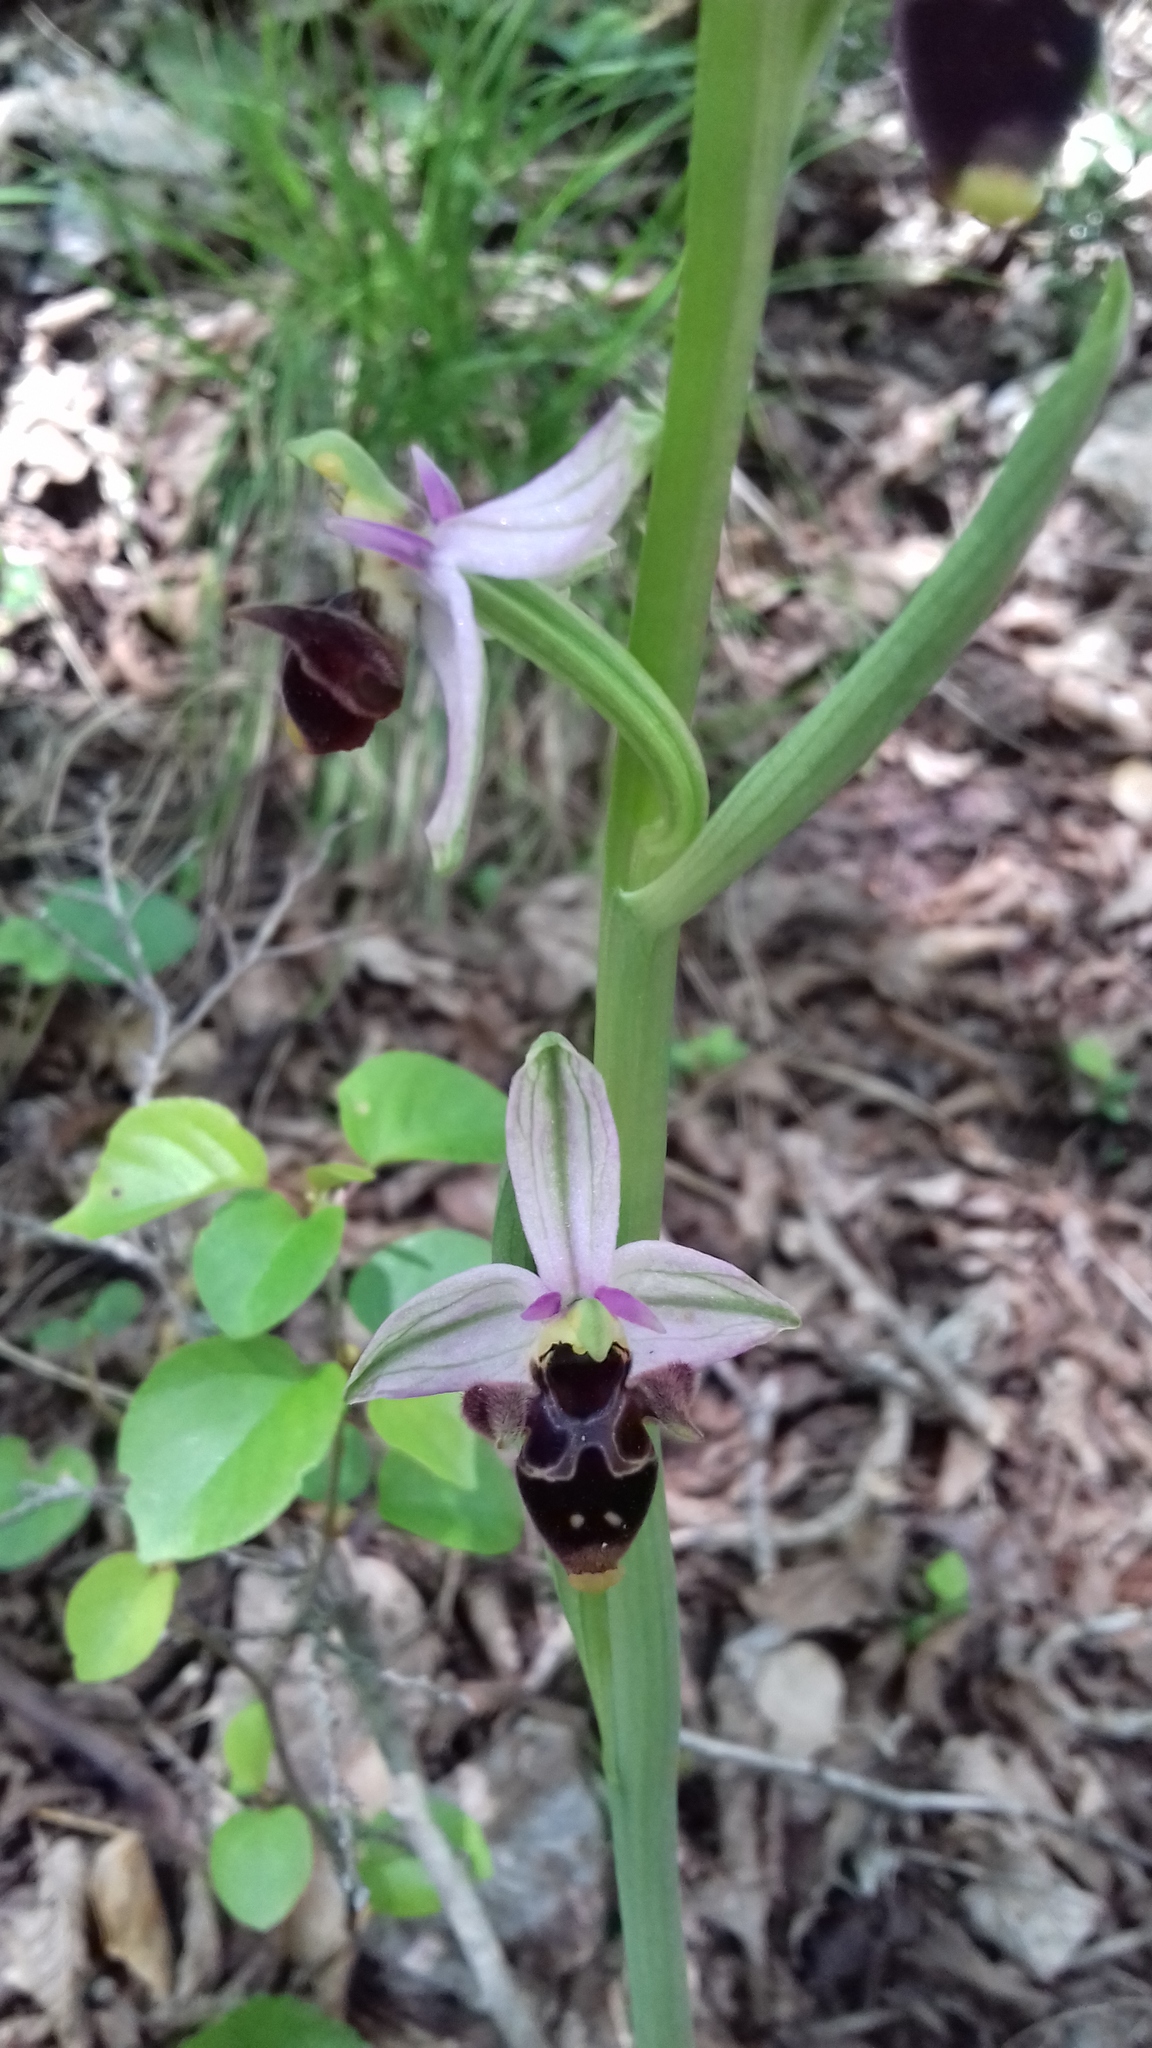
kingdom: Plantae
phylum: Tracheophyta
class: Liliopsida
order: Asparagales
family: Orchidaceae
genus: Ophrys
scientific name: Ophrys
